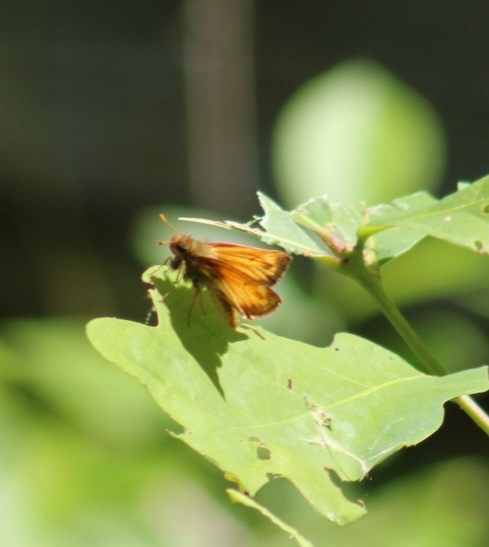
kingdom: Animalia
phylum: Arthropoda
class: Insecta
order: Lepidoptera
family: Hesperiidae
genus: Lon
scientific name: Lon zabulon
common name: Zabulon skipper
